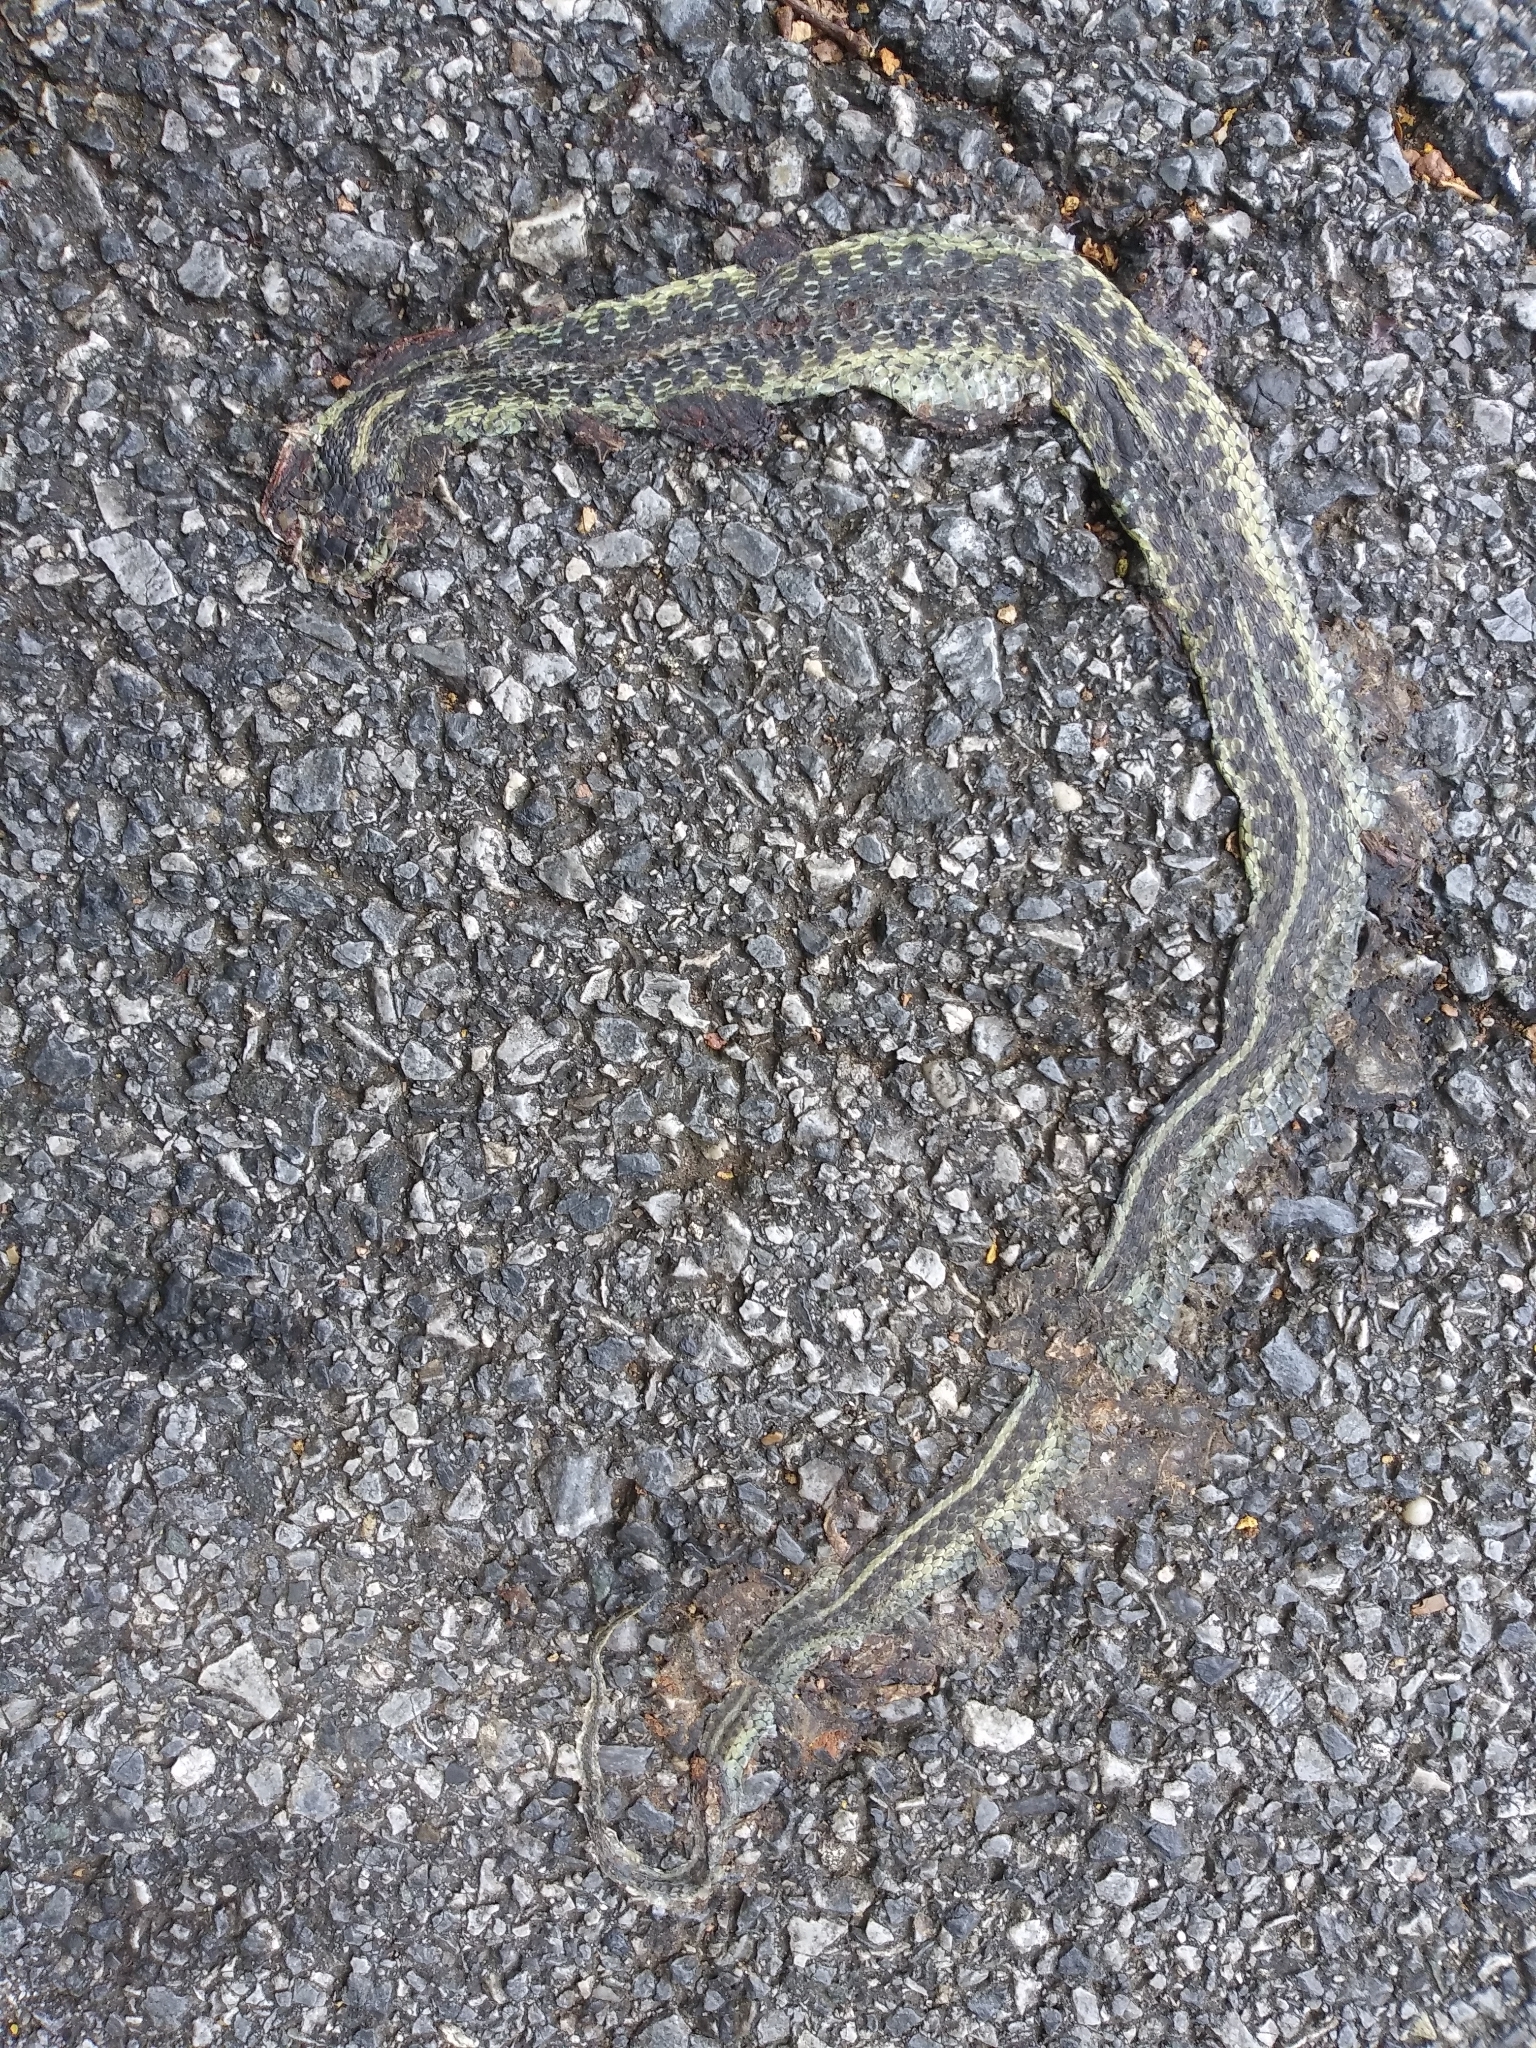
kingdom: Animalia
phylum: Chordata
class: Squamata
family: Colubridae
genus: Thamnophis
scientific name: Thamnophis sirtalis
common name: Common garter snake
